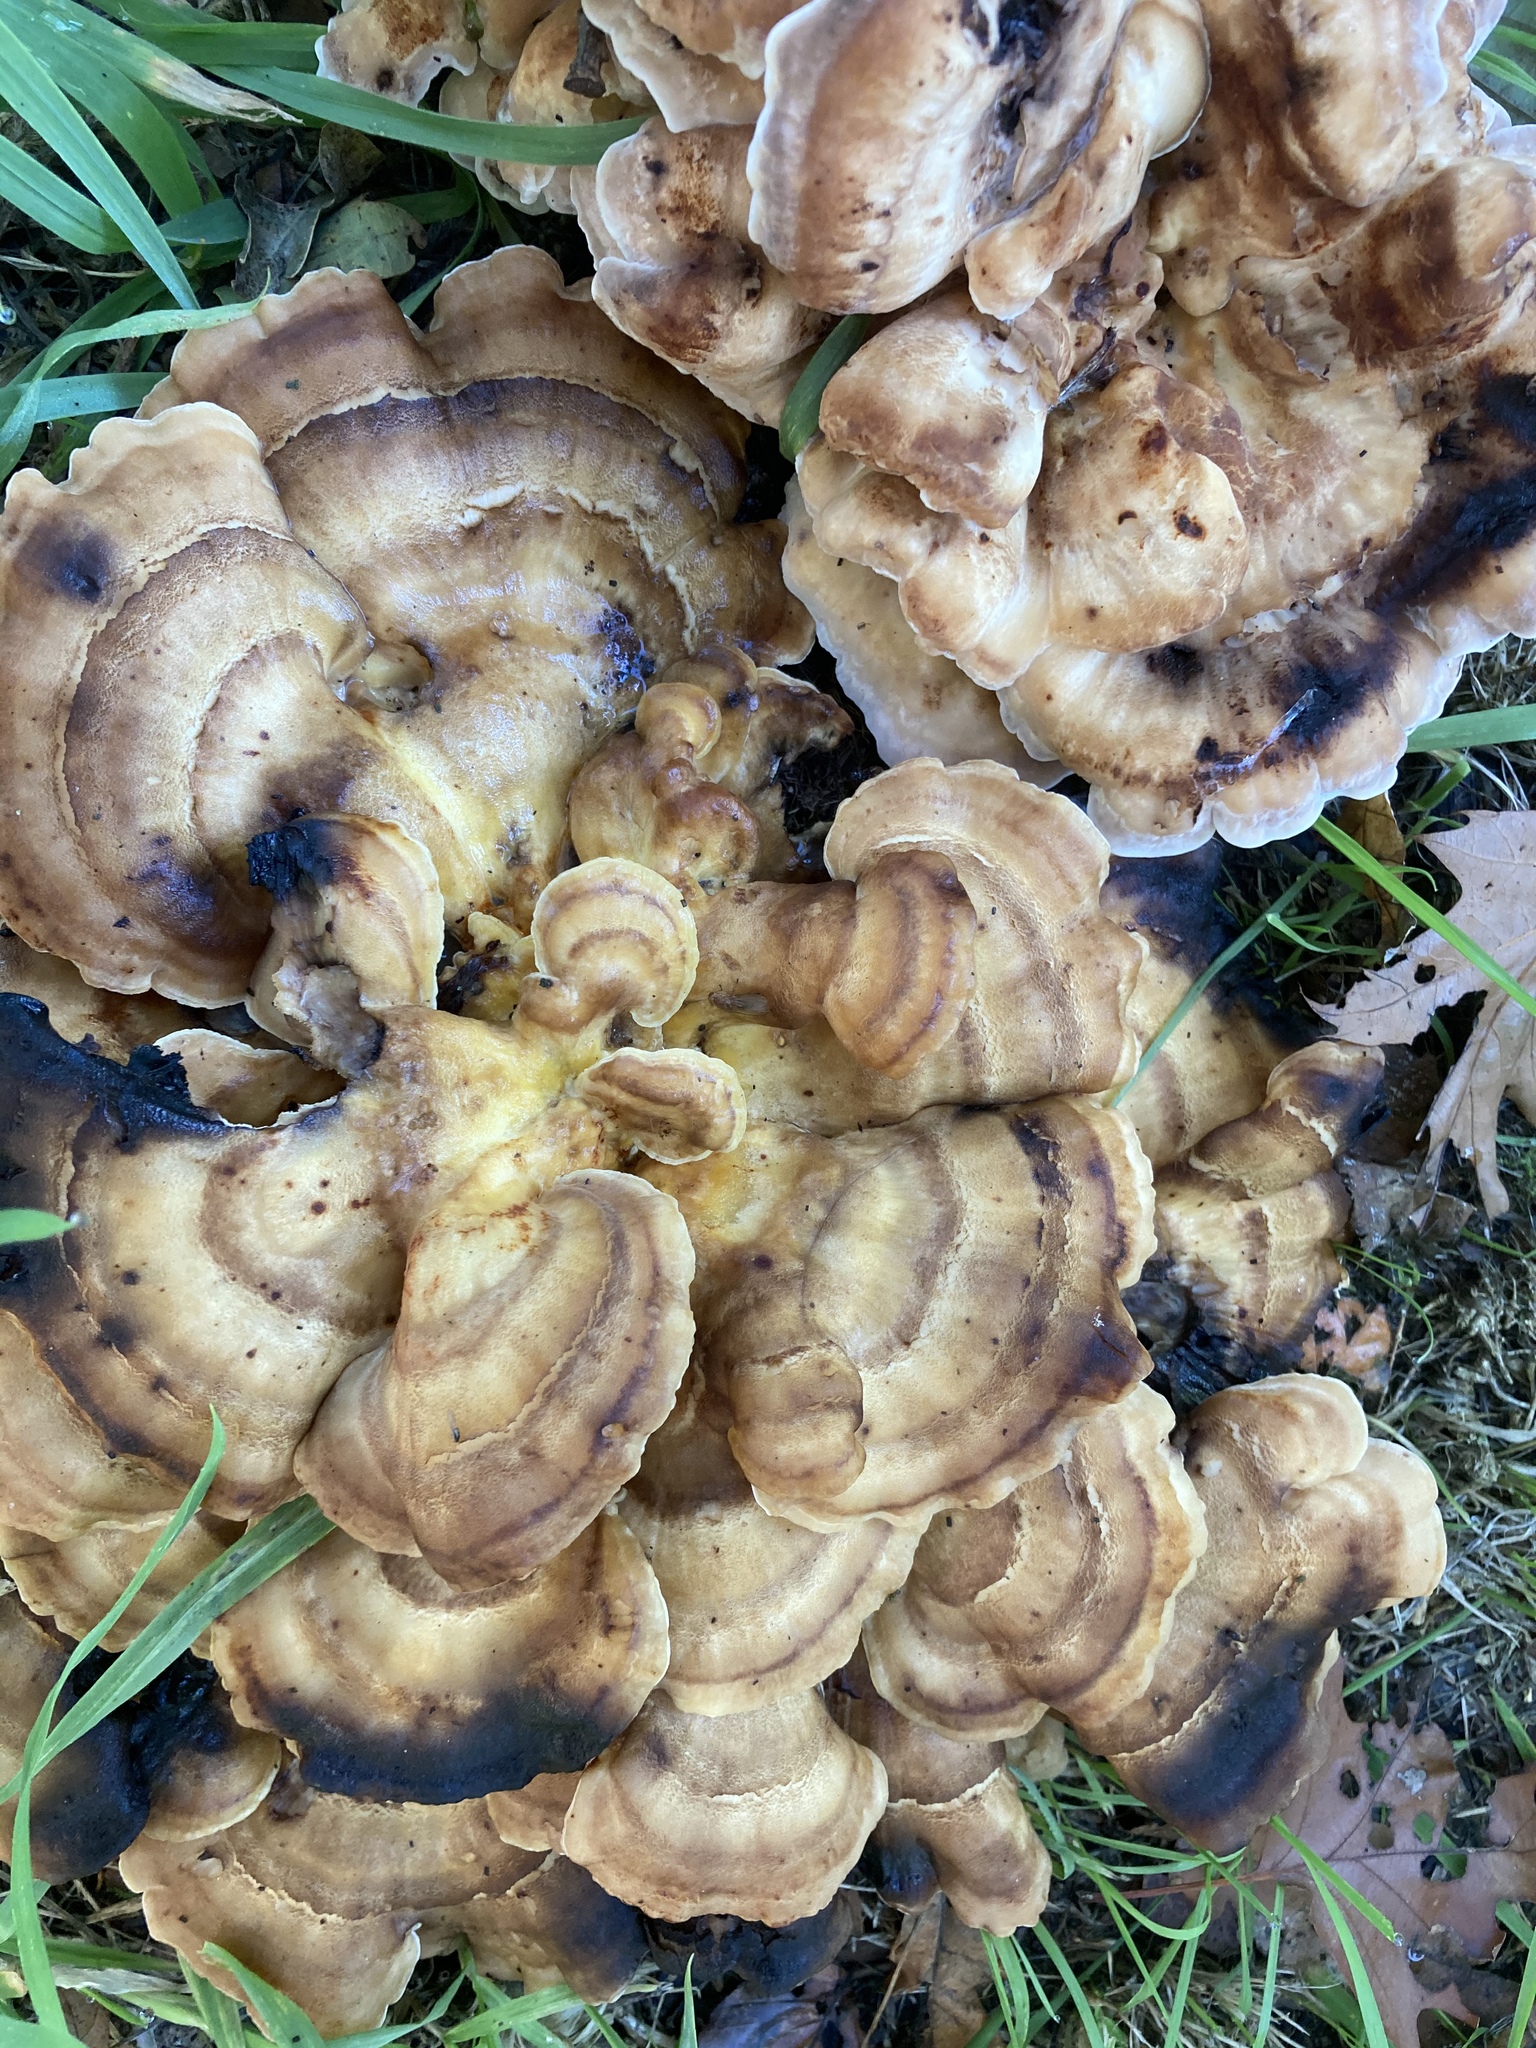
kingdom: Fungi
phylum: Basidiomycota
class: Agaricomycetes
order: Polyporales
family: Meripilaceae
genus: Meripilus
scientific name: Meripilus giganteus
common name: Giant polypore
